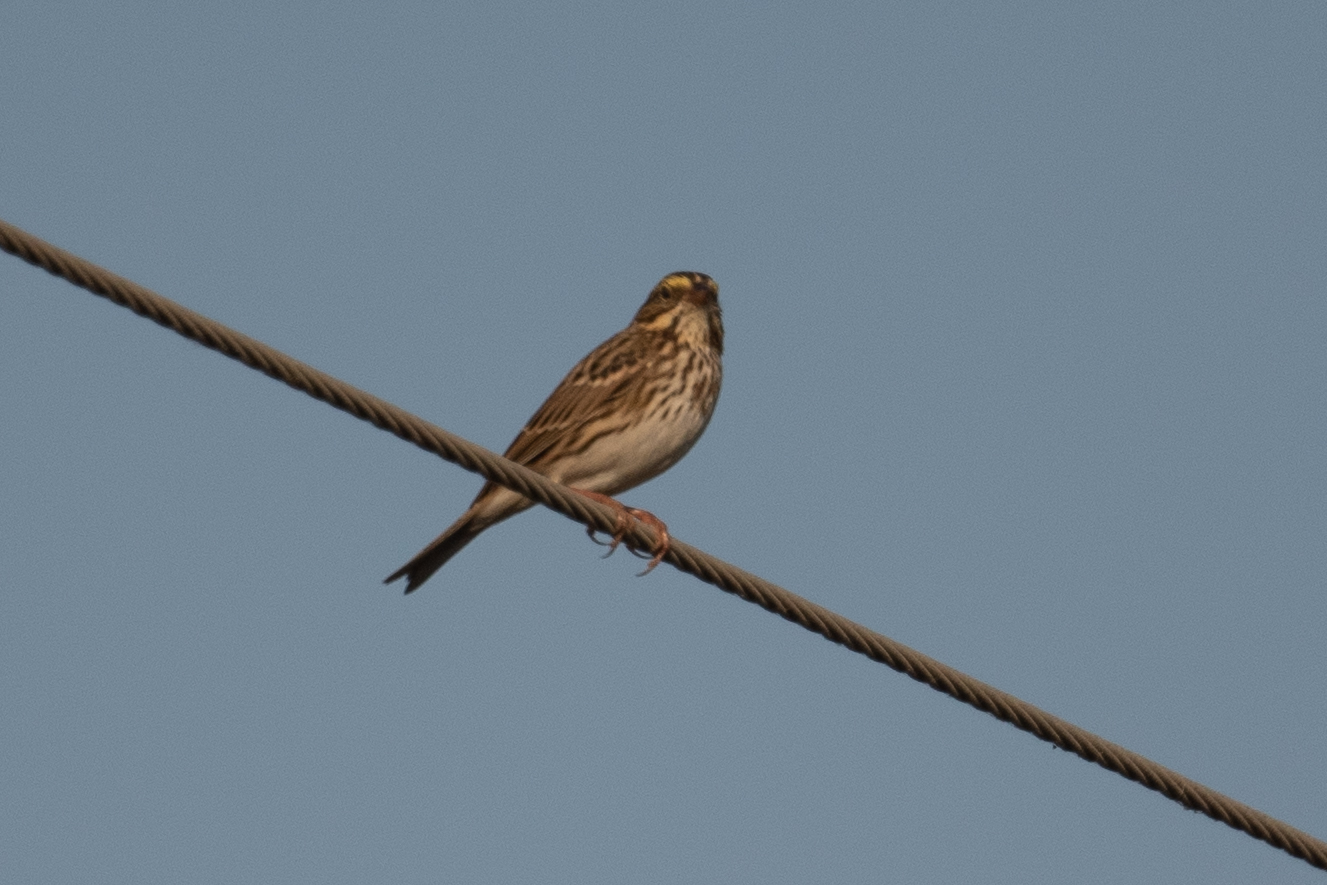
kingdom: Animalia
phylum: Chordata
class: Aves
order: Passeriformes
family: Passerellidae
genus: Passerculus
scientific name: Passerculus sandwichensis
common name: Savannah sparrow
